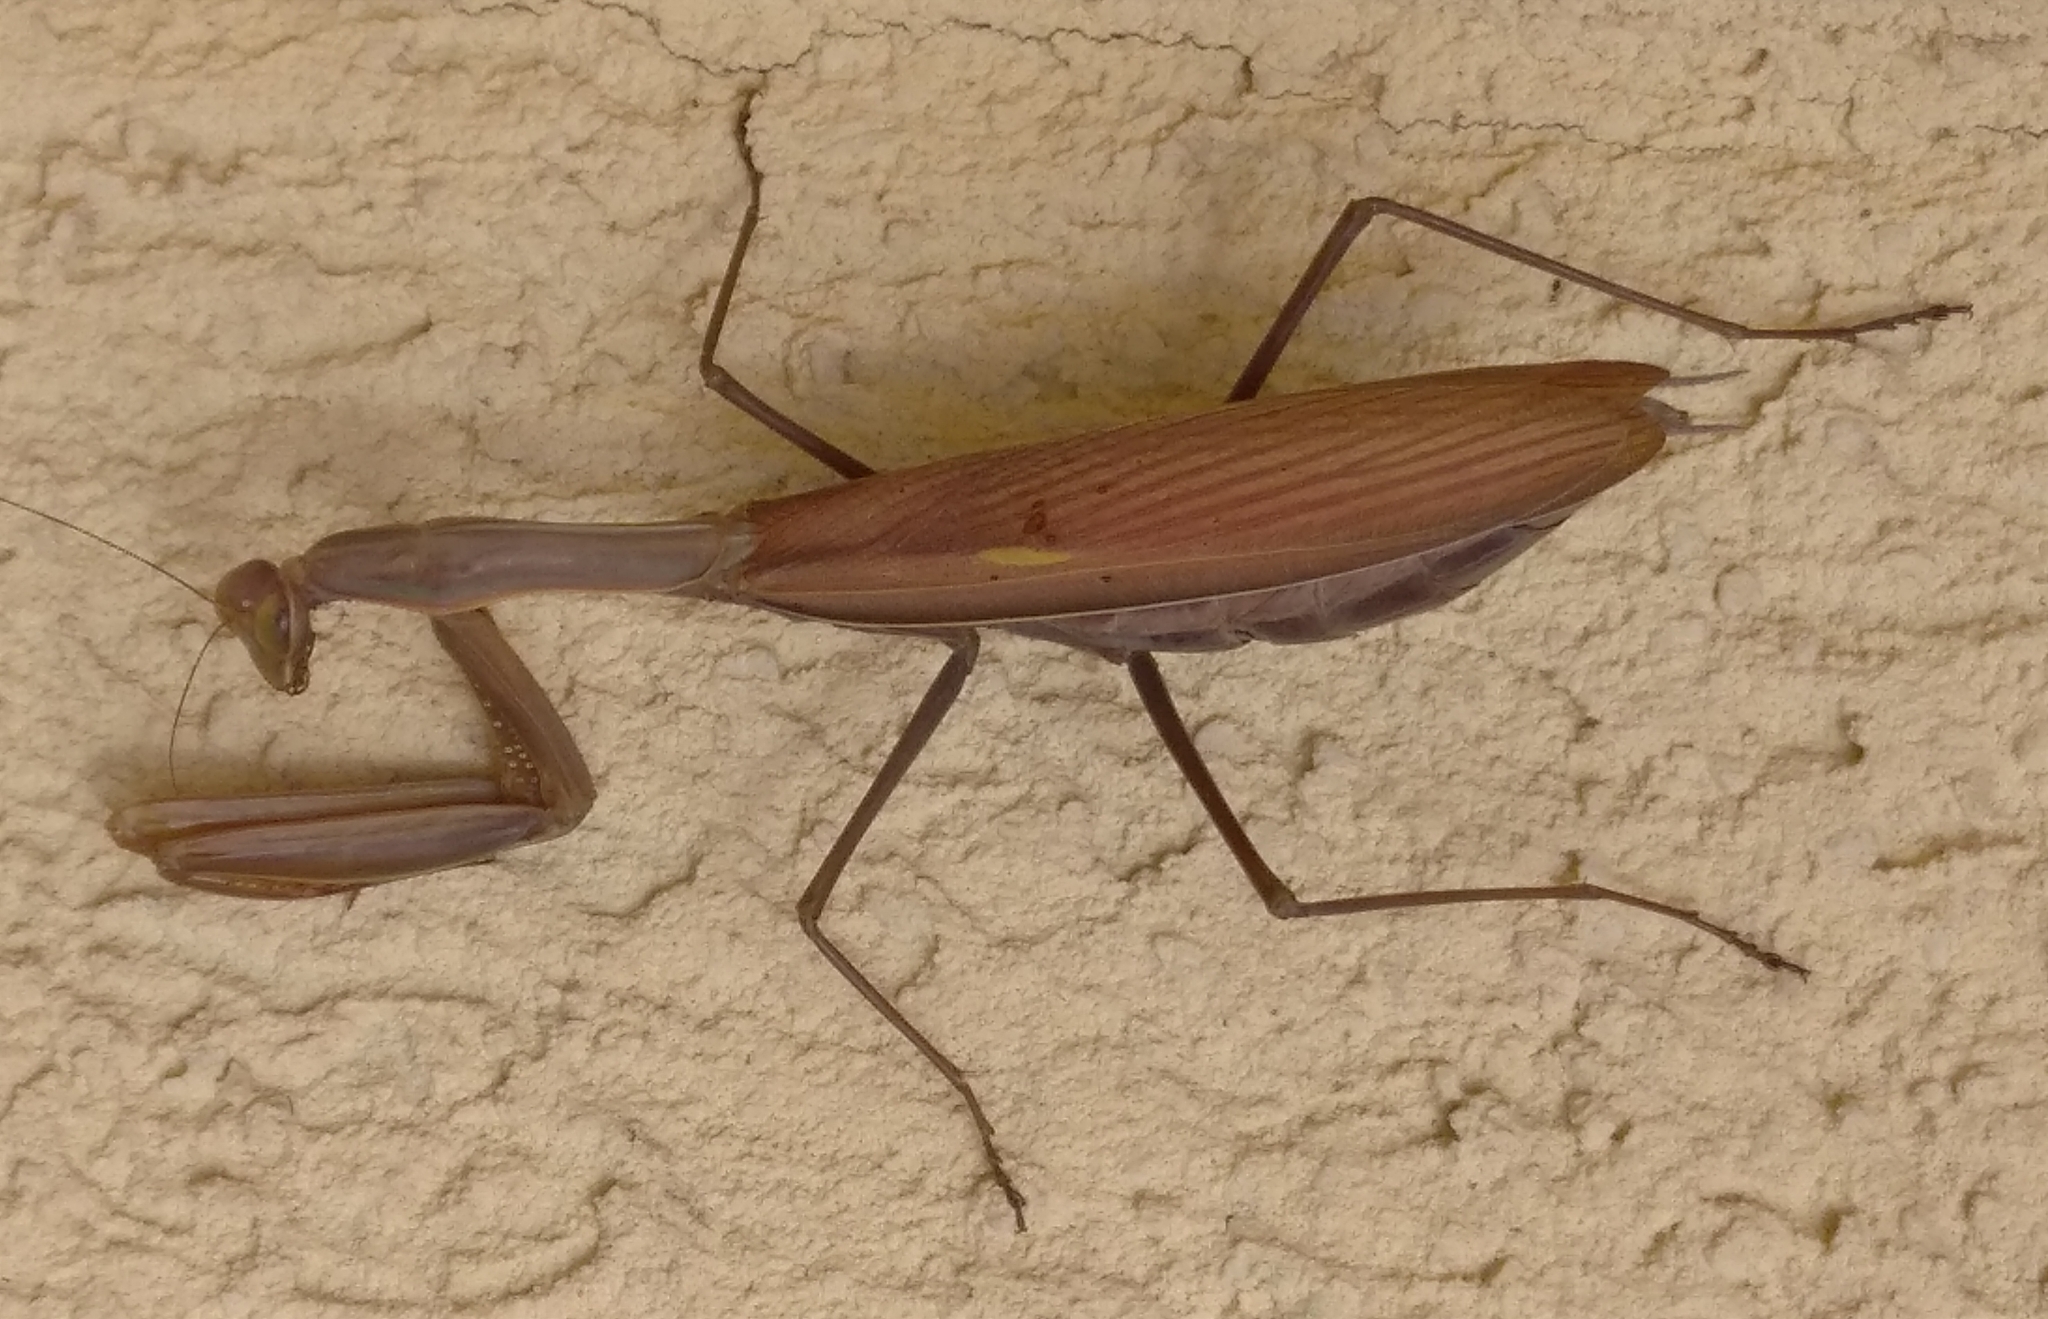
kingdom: Animalia
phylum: Arthropoda
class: Insecta
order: Mantodea
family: Mantidae
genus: Mantis
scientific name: Mantis religiosa
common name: Praying mantis
